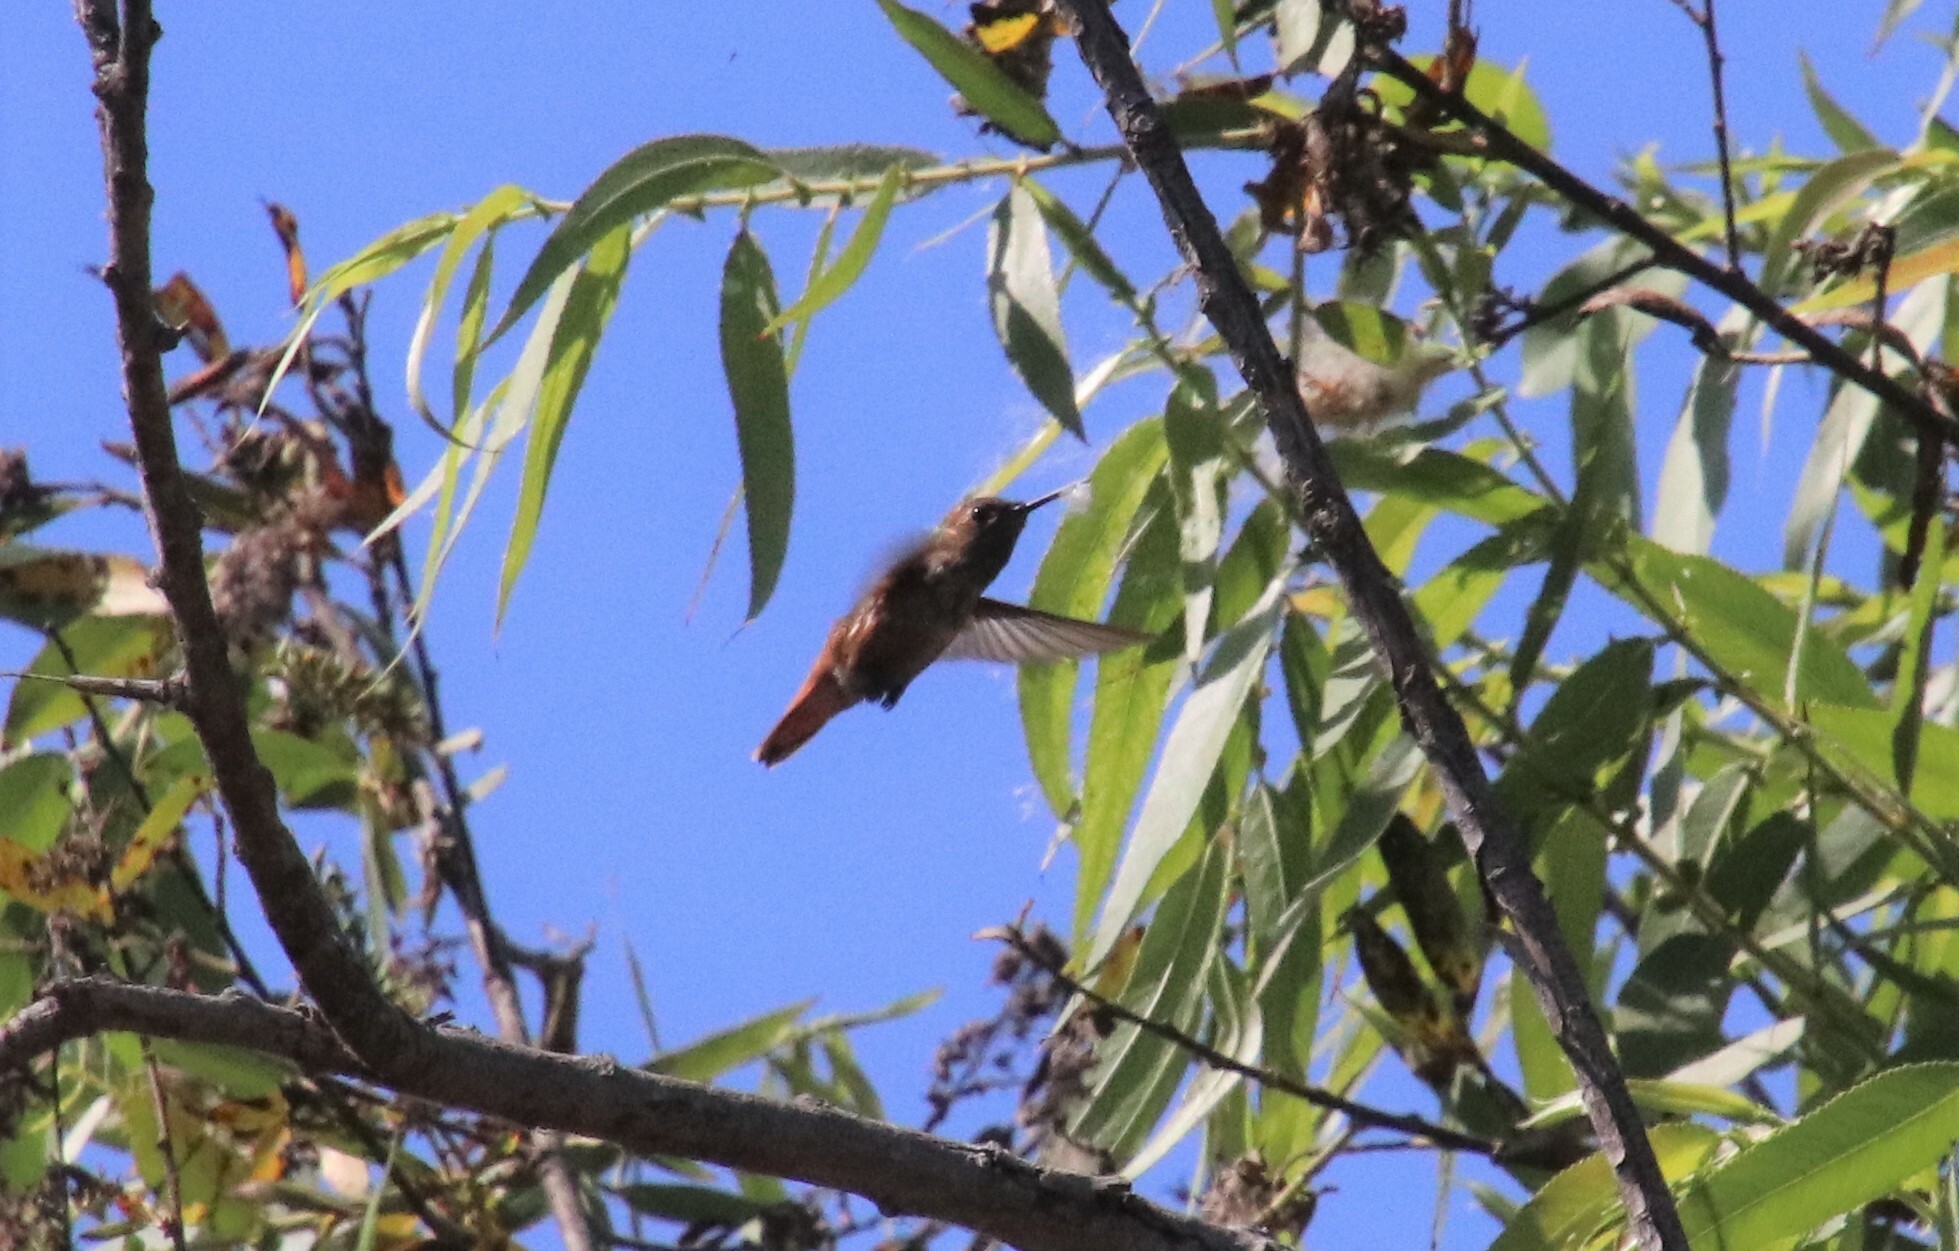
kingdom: Animalia
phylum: Chordata
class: Aves
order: Apodiformes
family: Trochilidae
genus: Selasphorus
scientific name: Selasphorus
